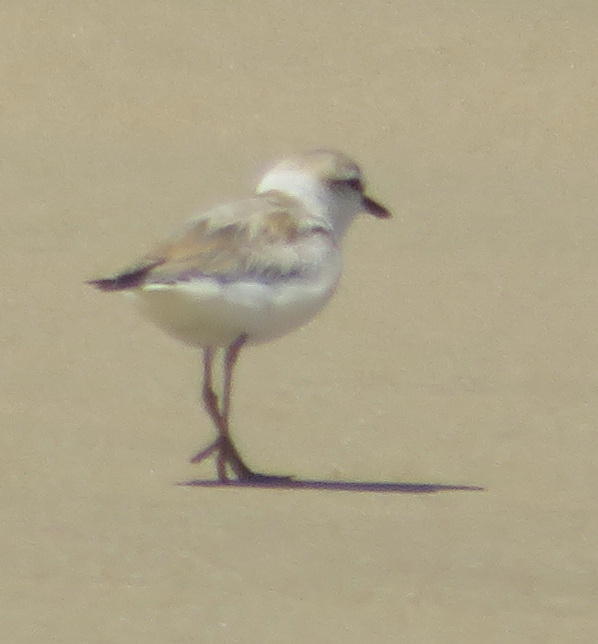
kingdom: Animalia
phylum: Chordata
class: Aves
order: Charadriiformes
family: Charadriidae
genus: Anarhynchus
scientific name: Anarhynchus
